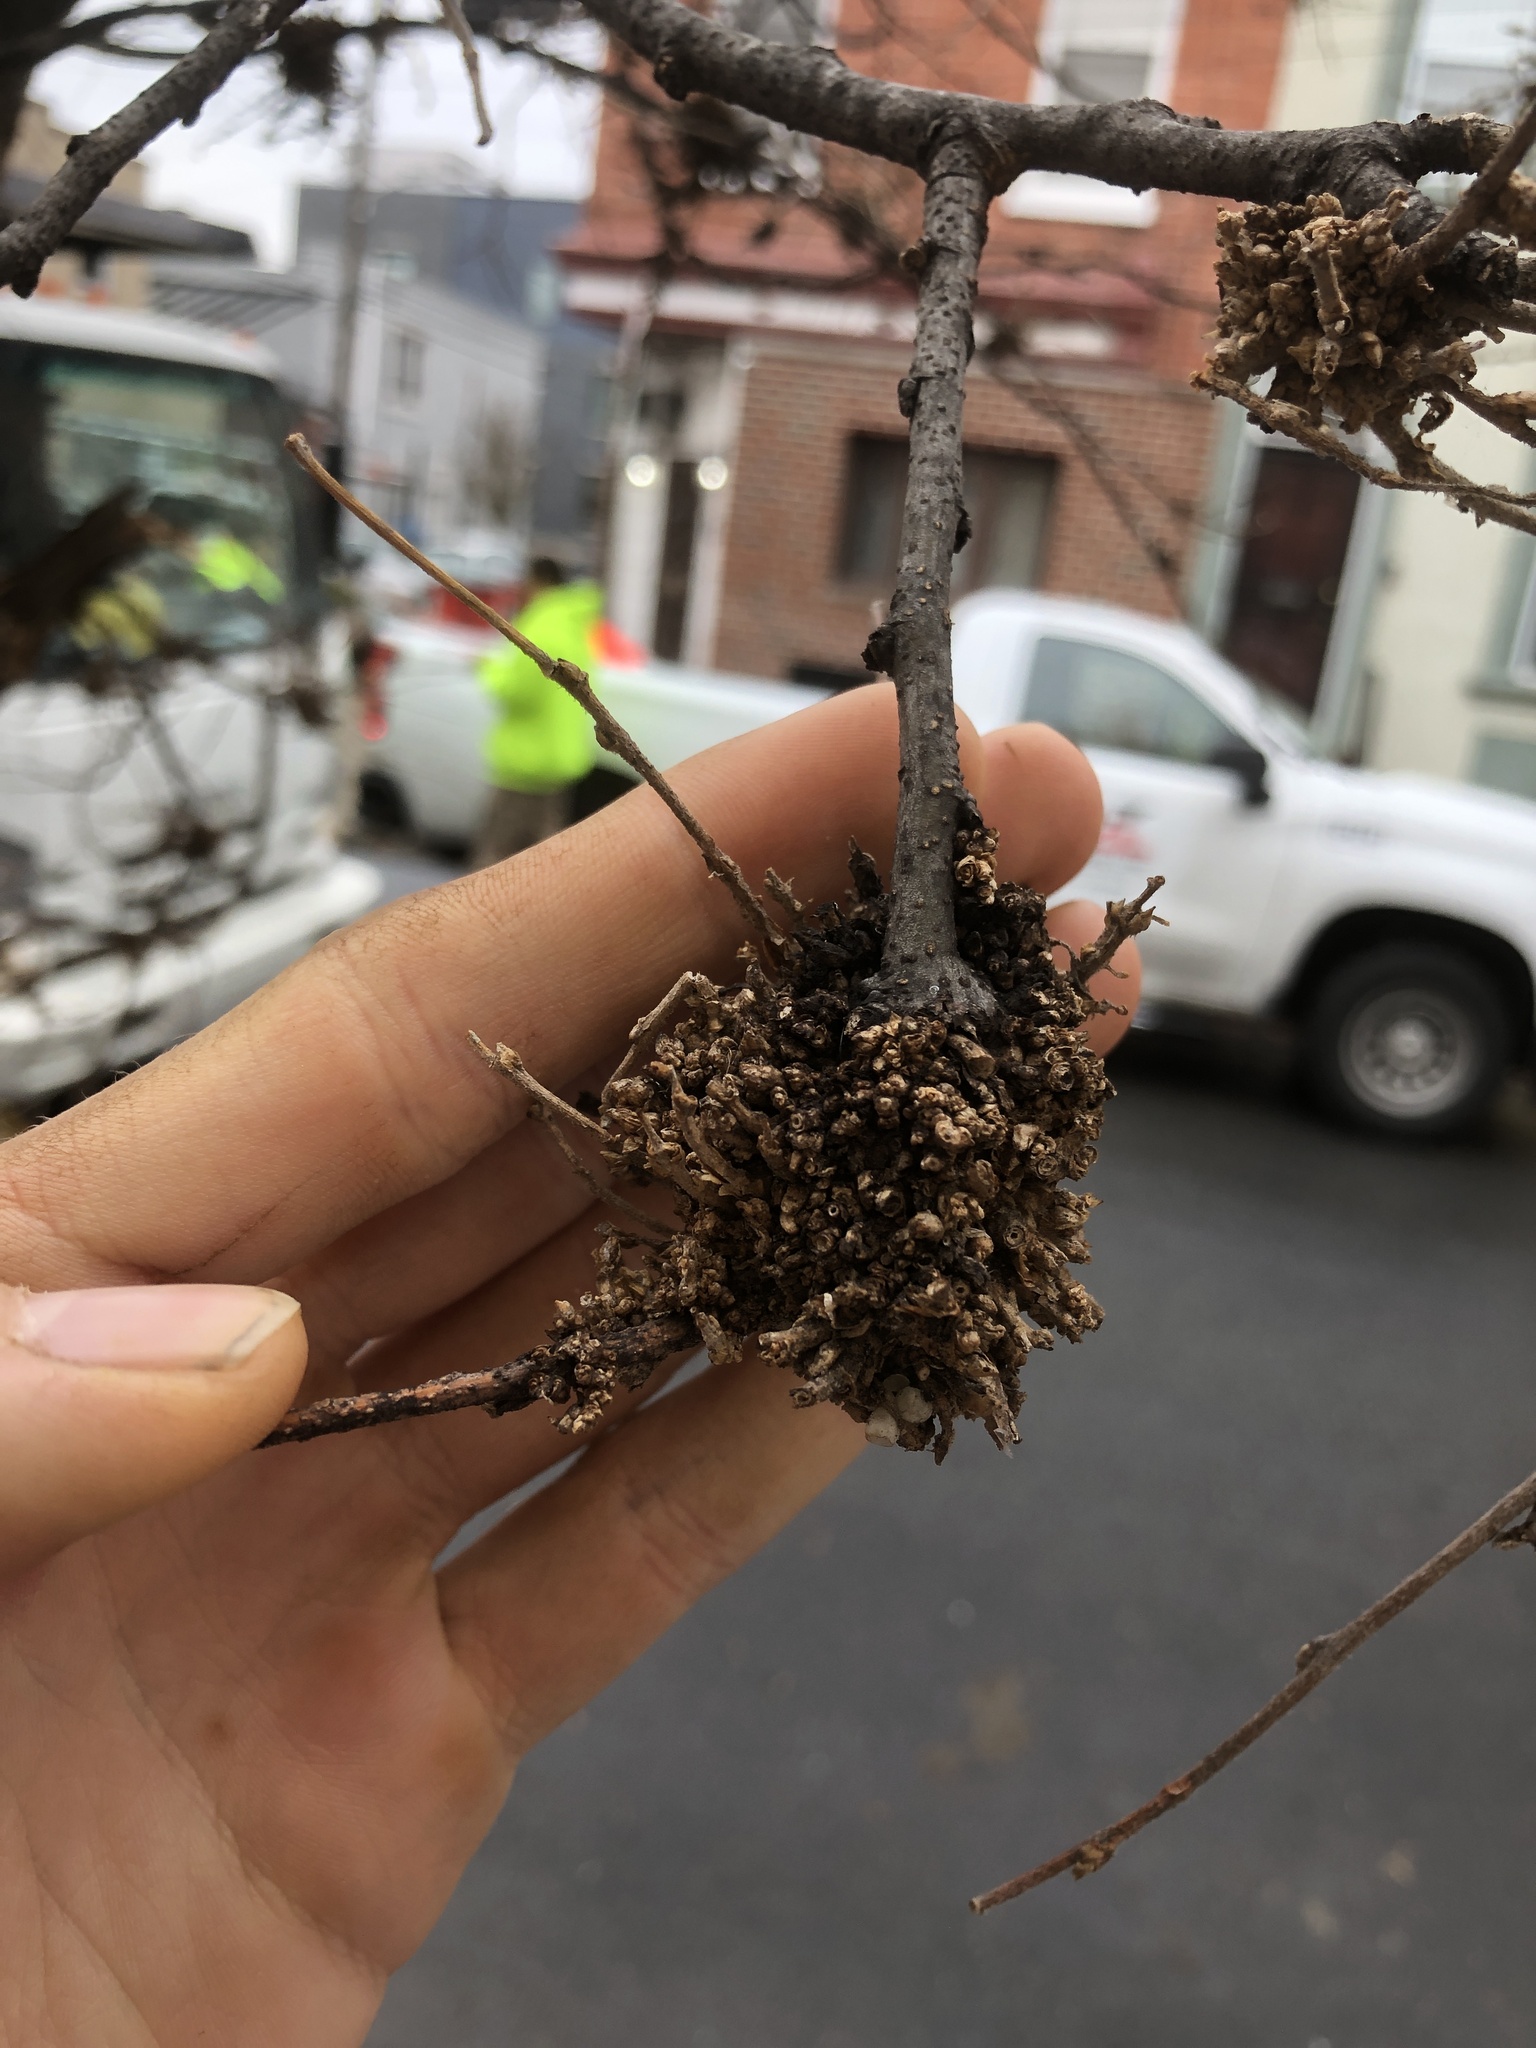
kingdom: Animalia
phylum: Arthropoda
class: Arachnida
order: Trombidiformes
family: Eriophyidae
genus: Aceria
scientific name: Aceria
